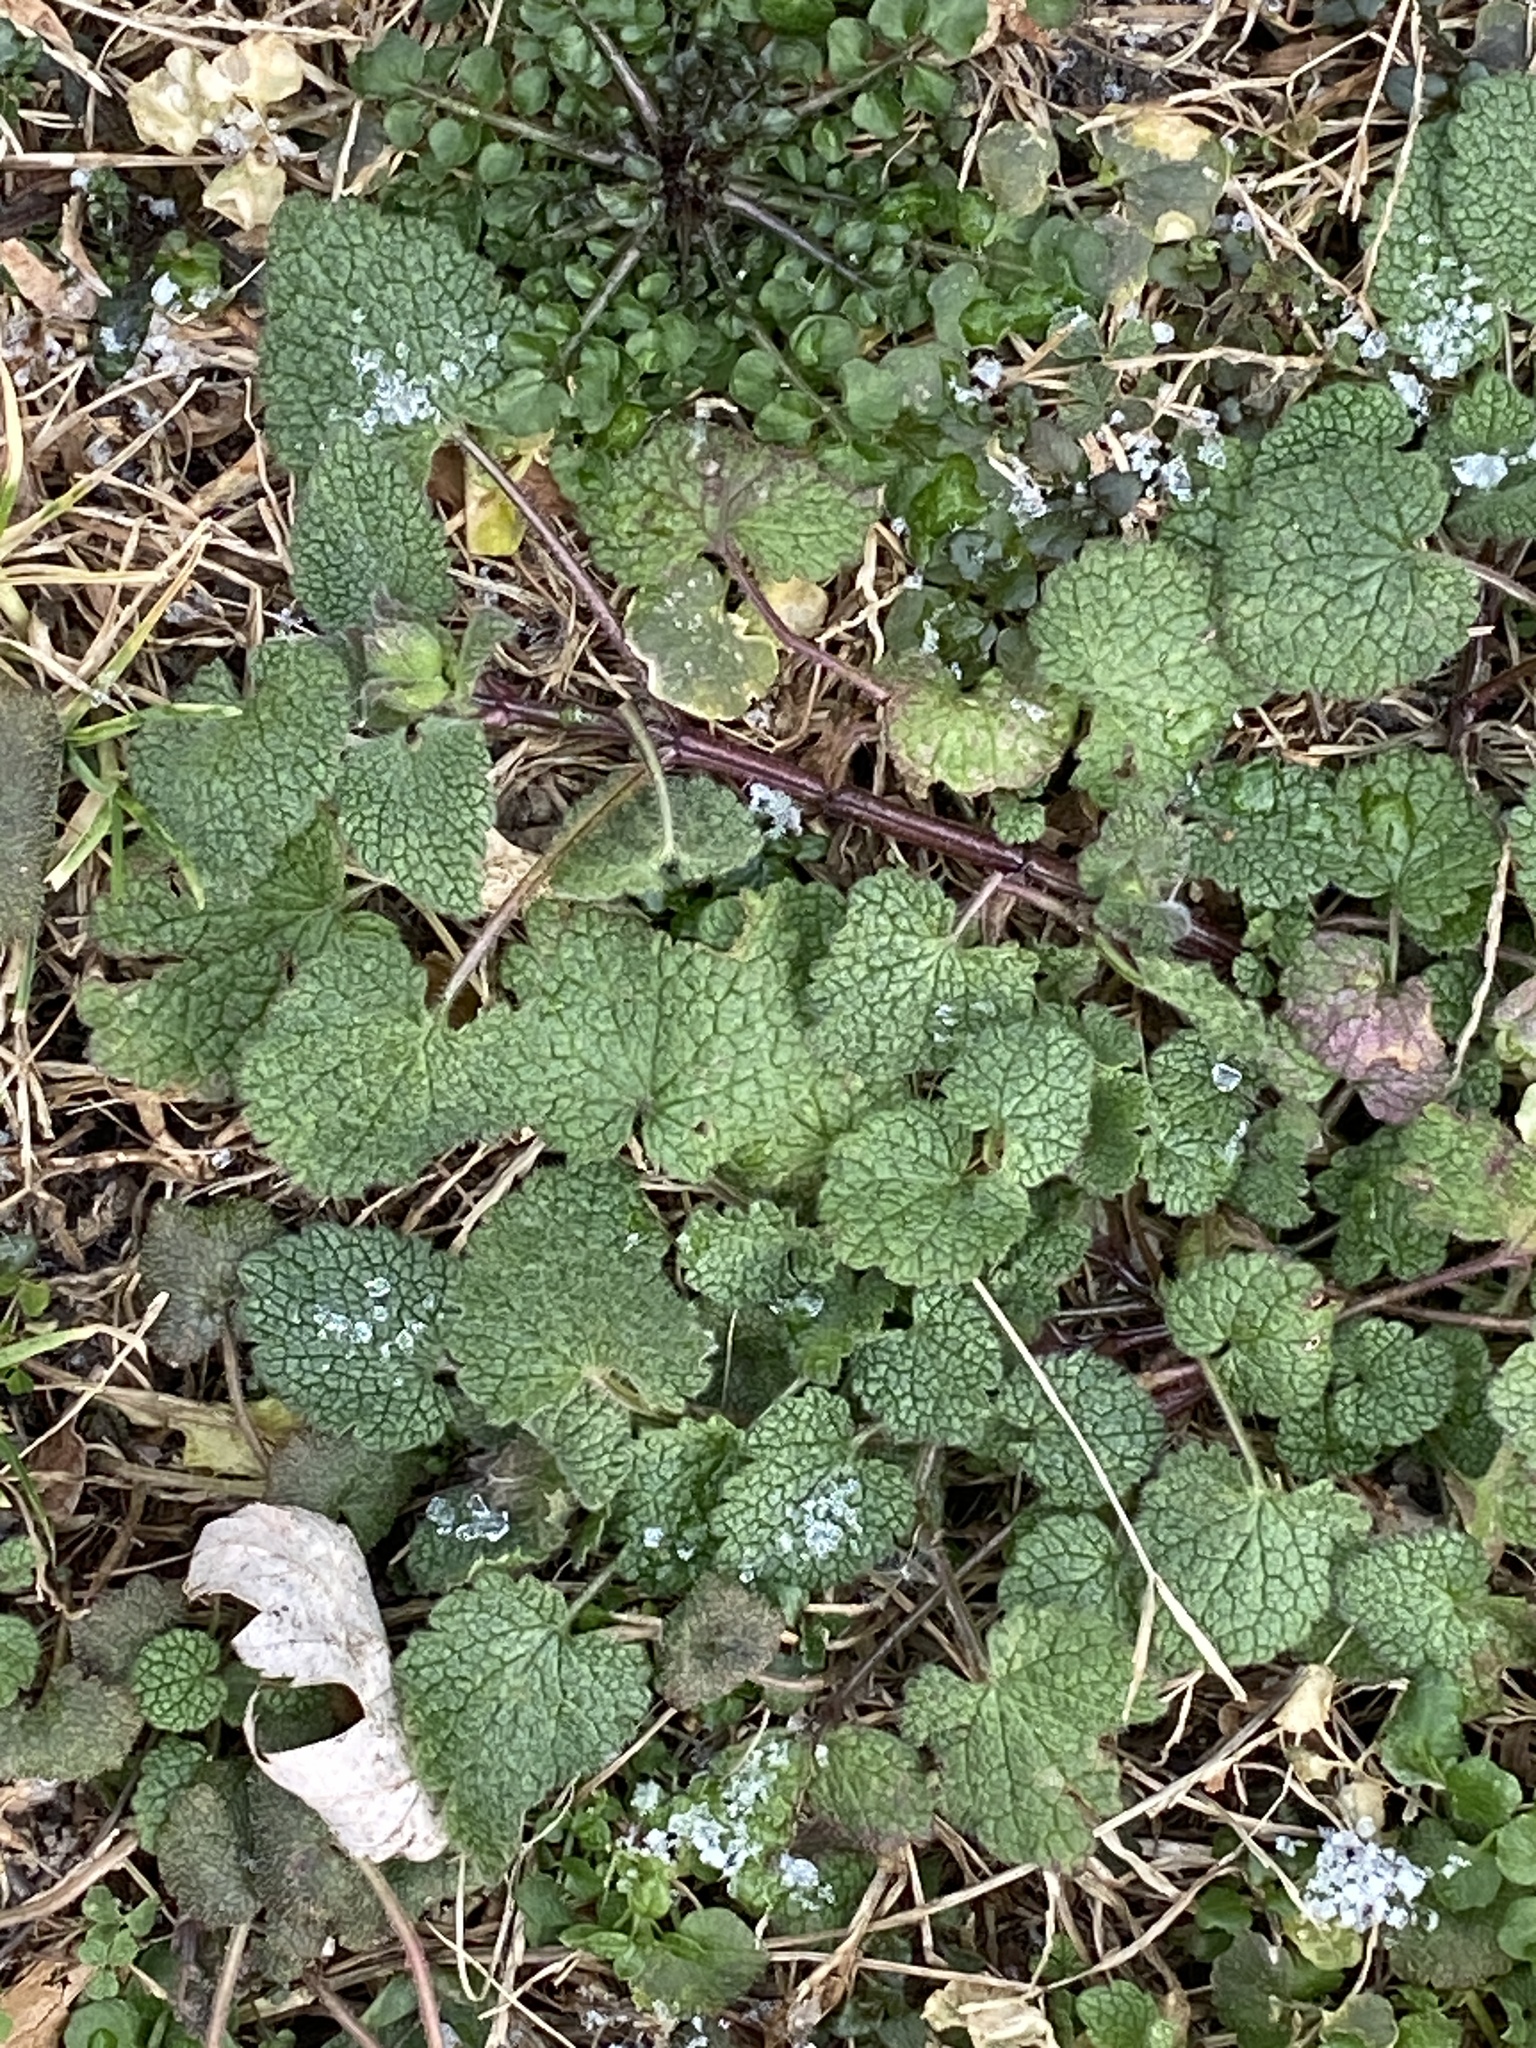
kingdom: Plantae
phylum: Tracheophyta
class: Magnoliopsida
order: Lamiales
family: Lamiaceae
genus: Lamium
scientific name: Lamium purpureum
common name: Red dead-nettle
